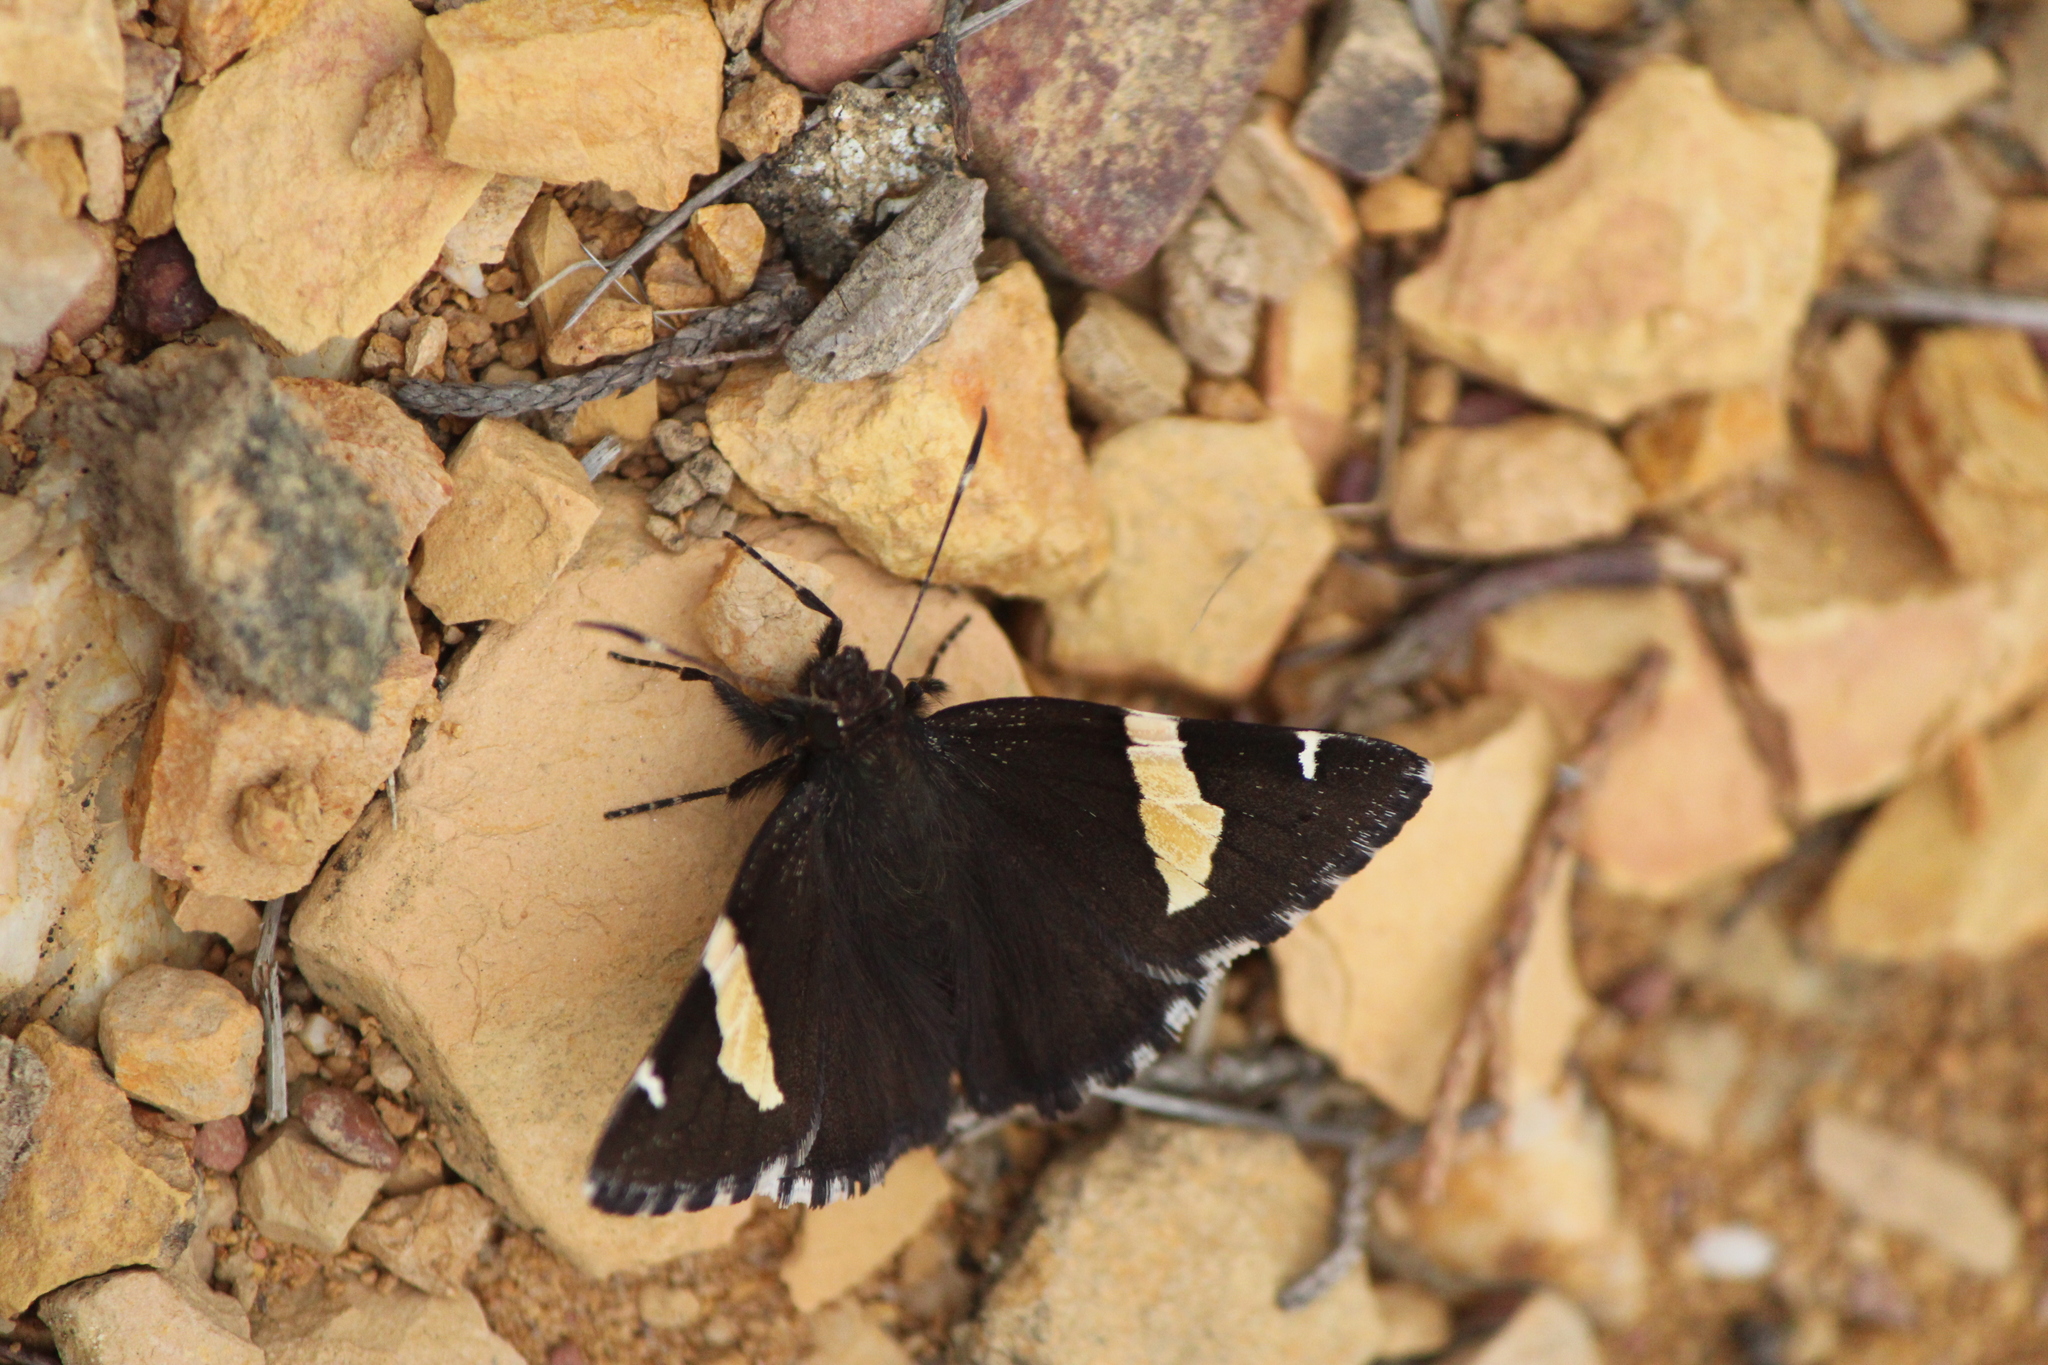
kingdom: Animalia
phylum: Arthropoda
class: Insecta
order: Lepidoptera
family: Hesperiidae
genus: Thorybes
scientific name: Thorybes pseudocellus
